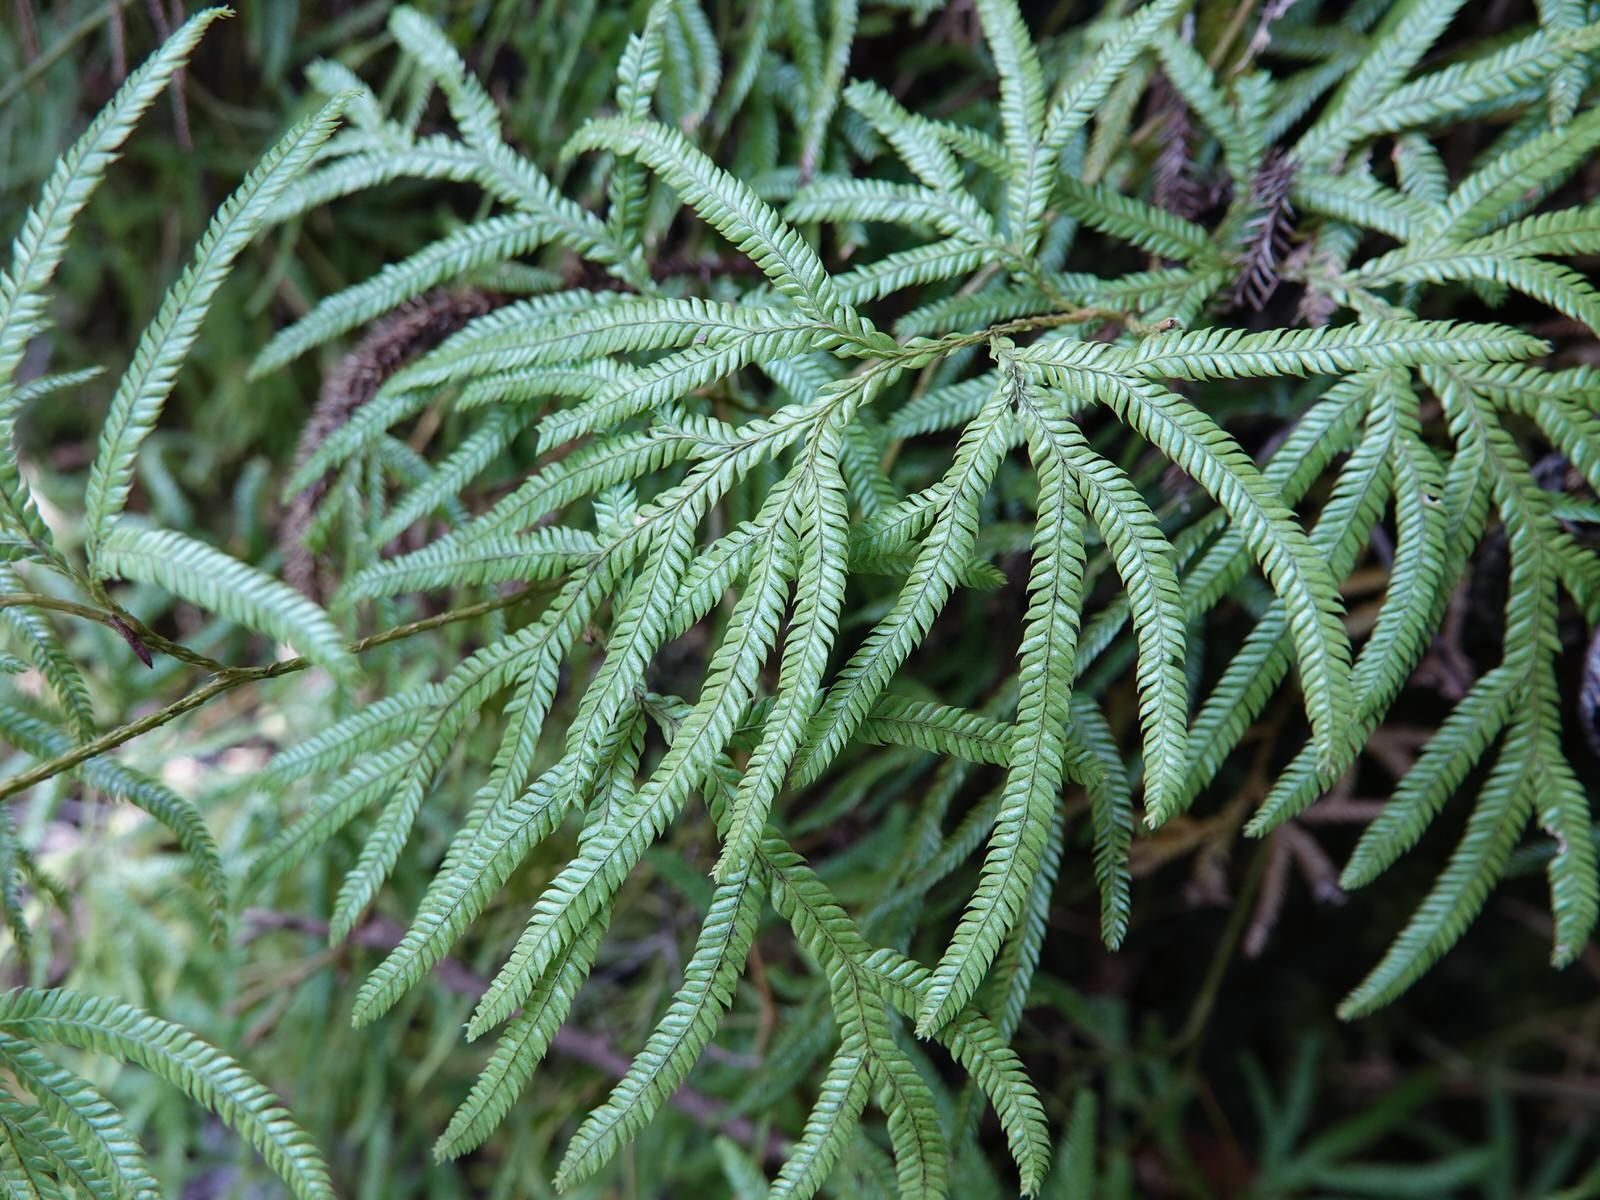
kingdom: Plantae
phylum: Tracheophyta
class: Lycopodiopsida
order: Lycopodiales
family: Lycopodiaceae
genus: Lycopodium
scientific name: Lycopodium volubile
